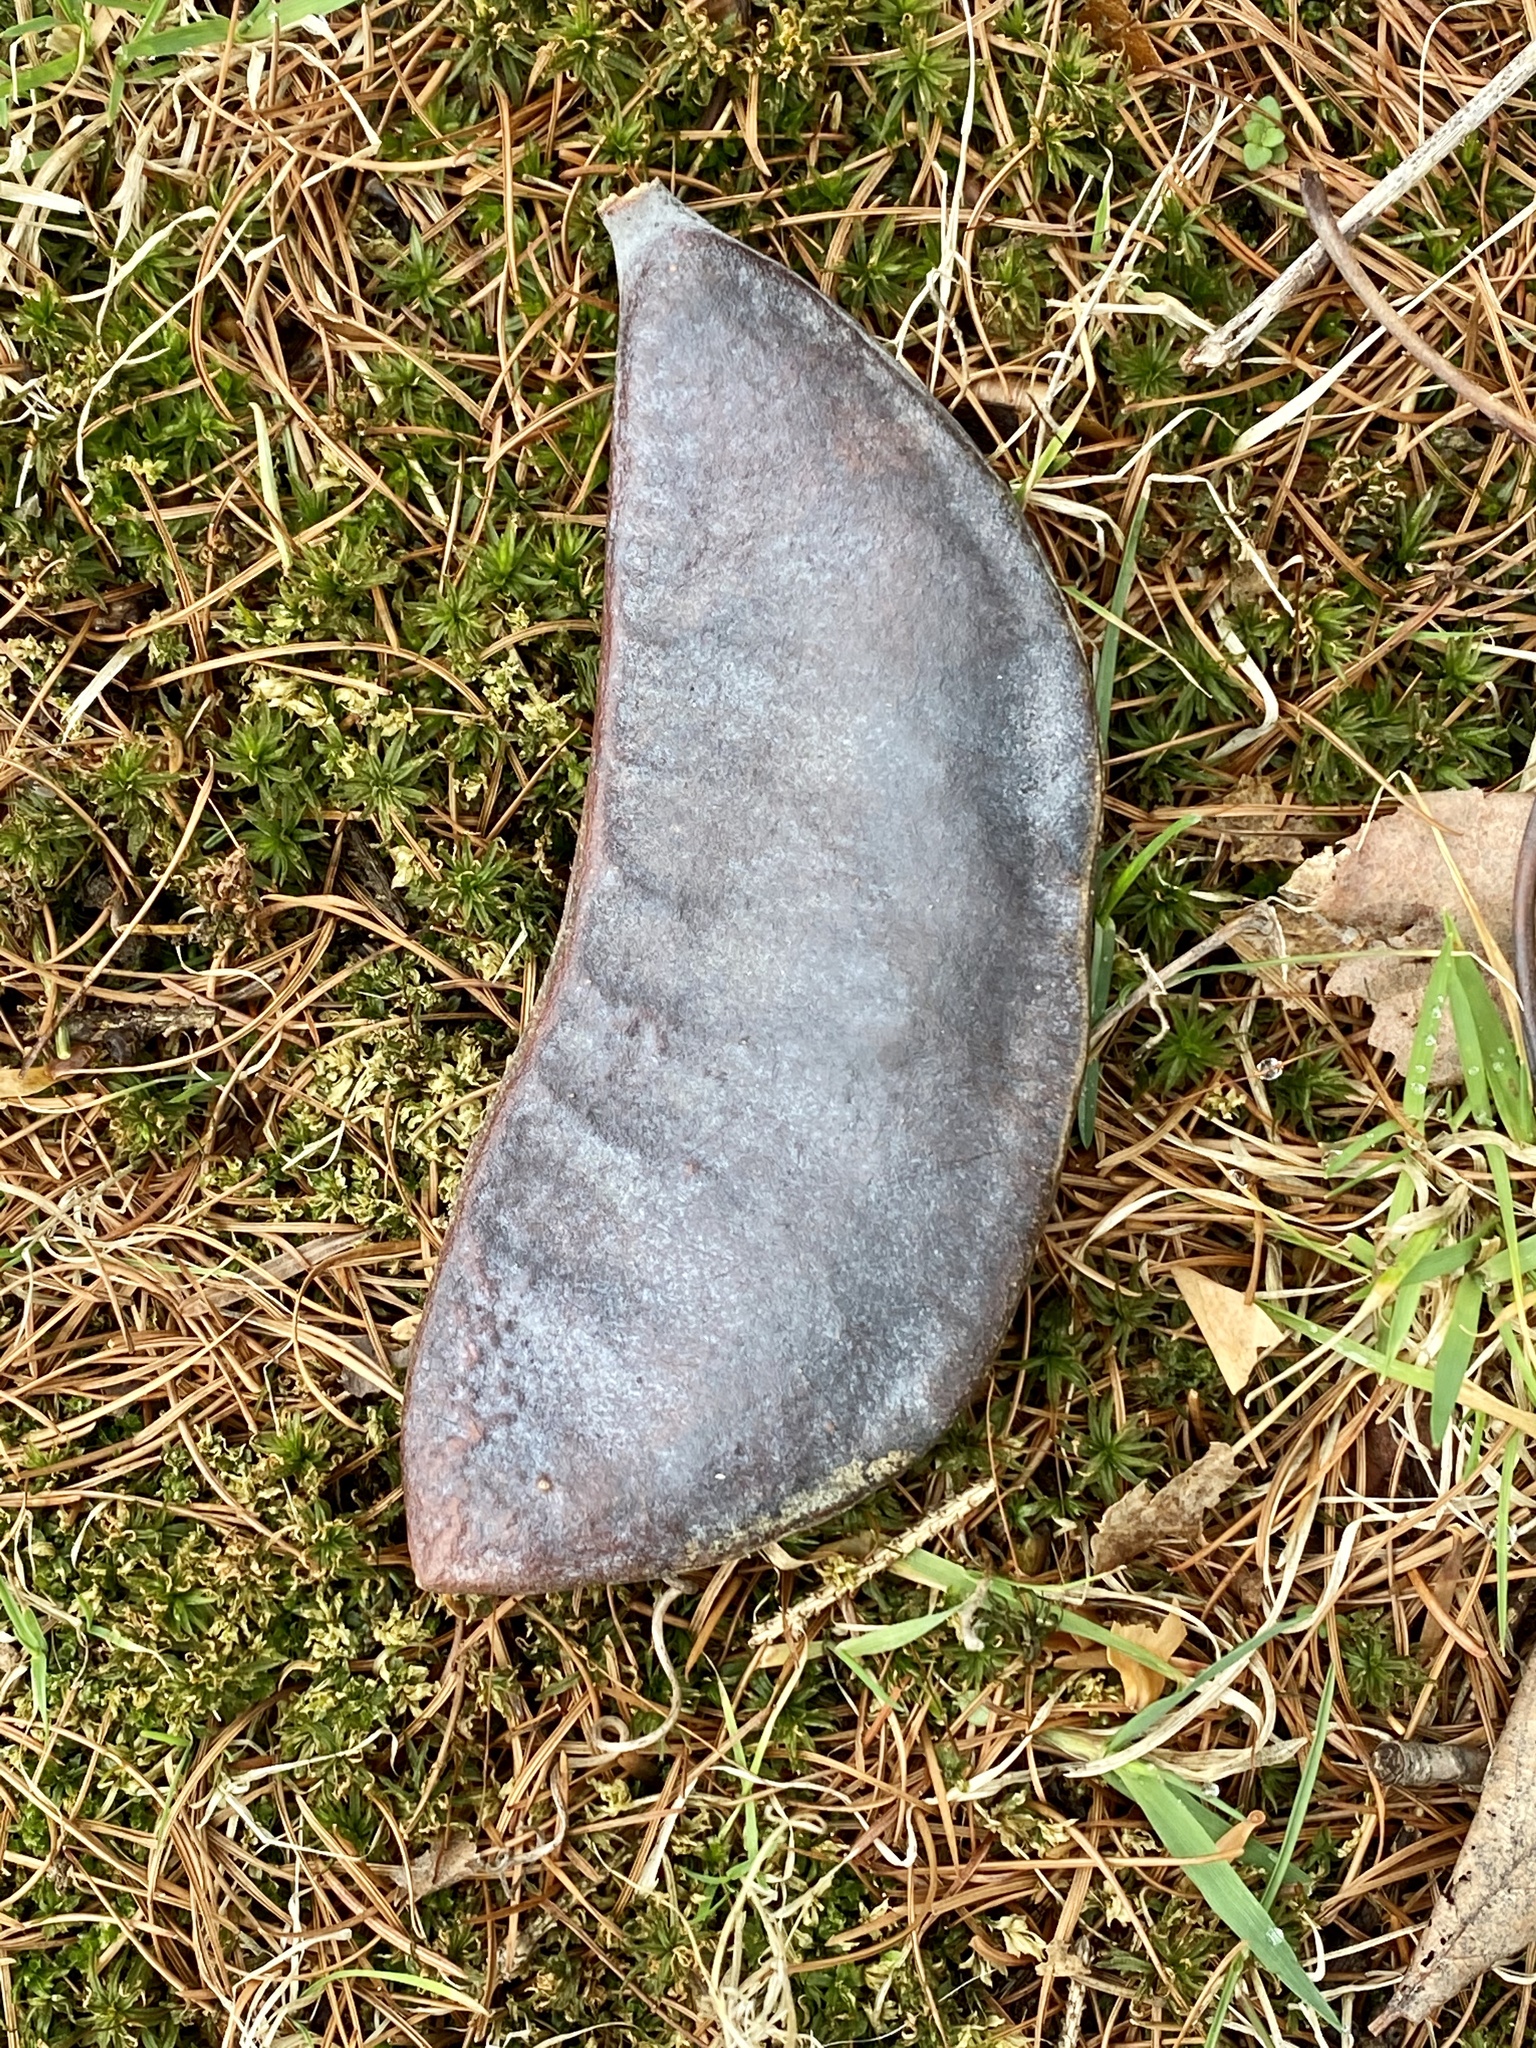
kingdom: Plantae
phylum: Tracheophyta
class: Magnoliopsida
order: Fabales
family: Fabaceae
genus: Gymnocladus
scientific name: Gymnocladus dioicus
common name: Kentucky coffee-tree
